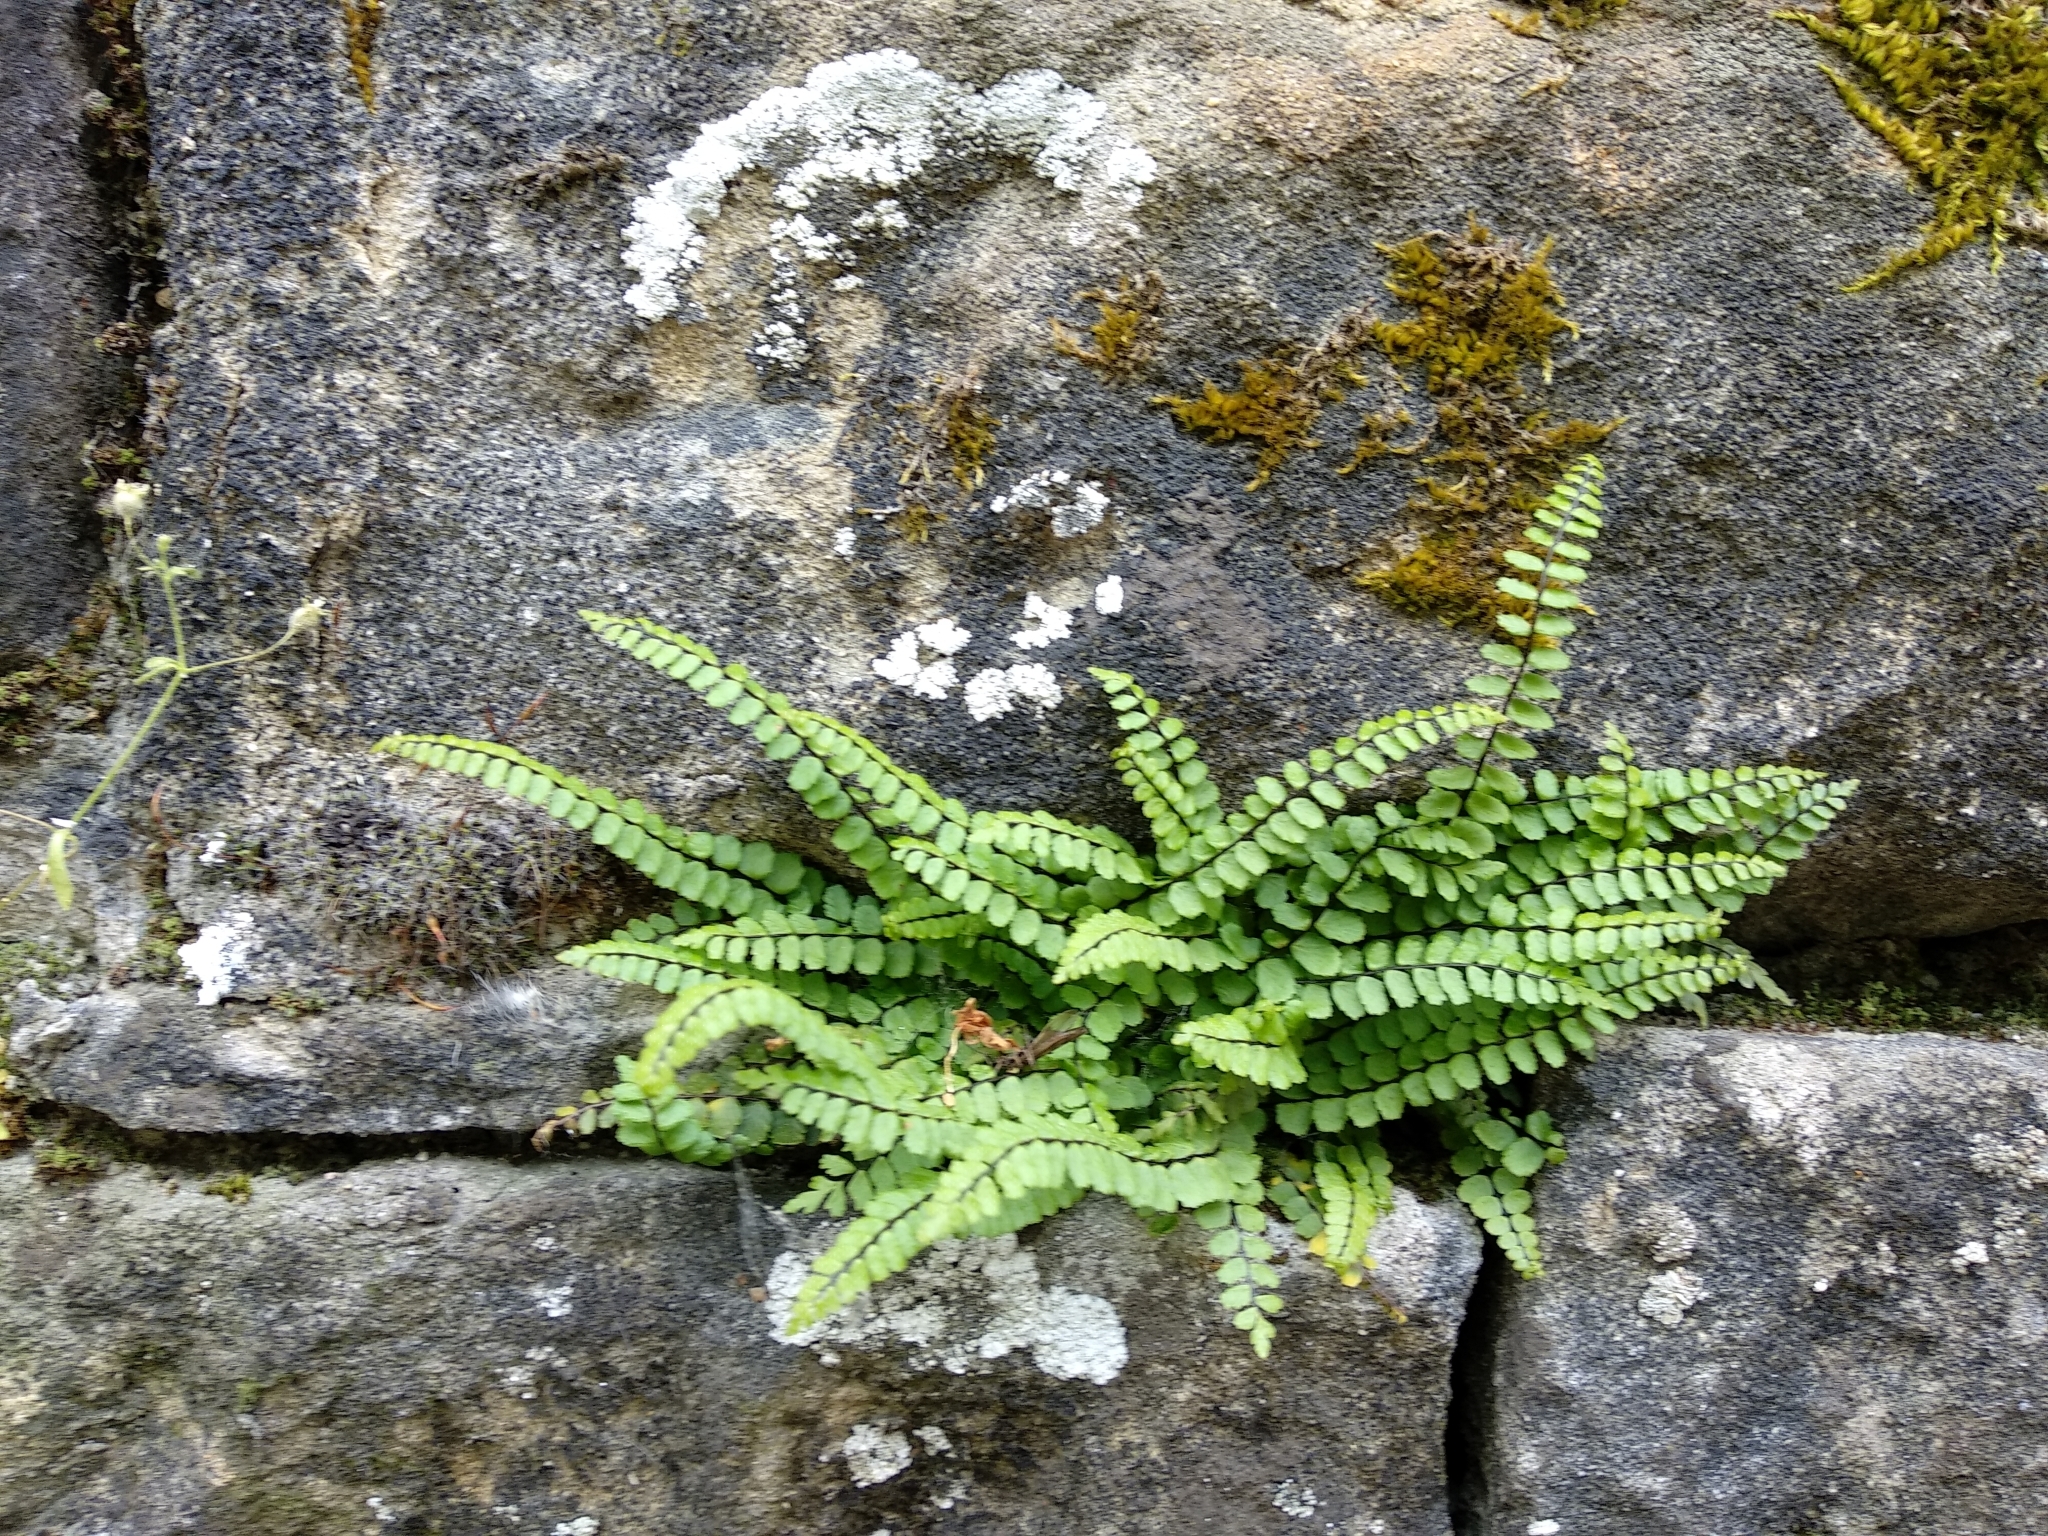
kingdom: Plantae
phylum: Tracheophyta
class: Polypodiopsida
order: Polypodiales
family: Aspleniaceae
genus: Asplenium
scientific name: Asplenium trichomanes
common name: Maidenhair spleenwort
